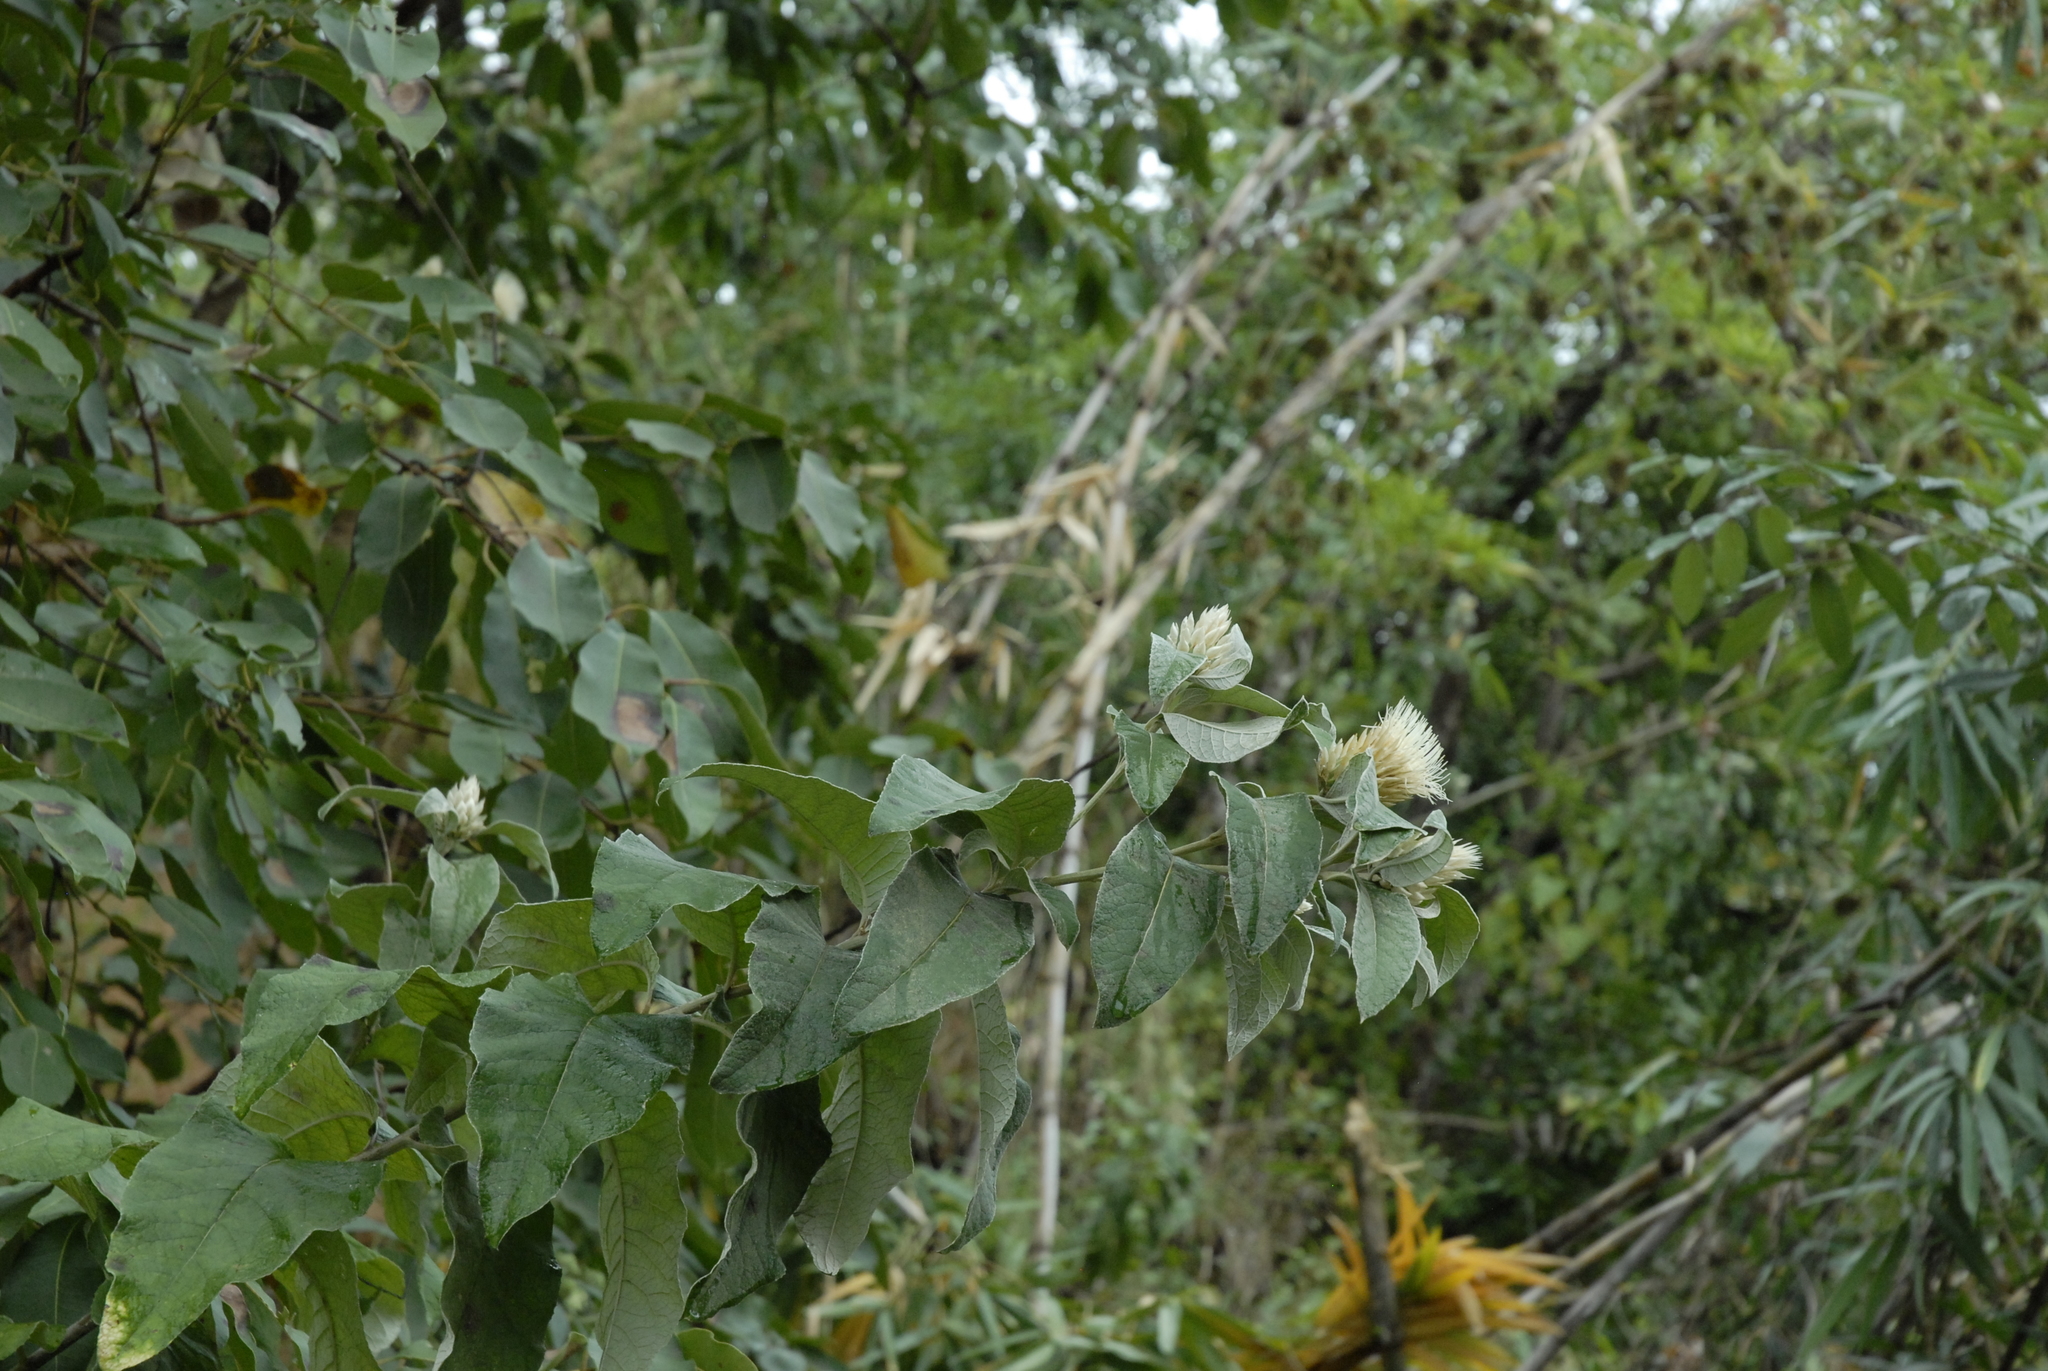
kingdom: Plantae
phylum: Tracheophyta
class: Magnoliopsida
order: Asterales
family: Asteraceae
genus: Ochrocephala
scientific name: Ochrocephala imatongensis
